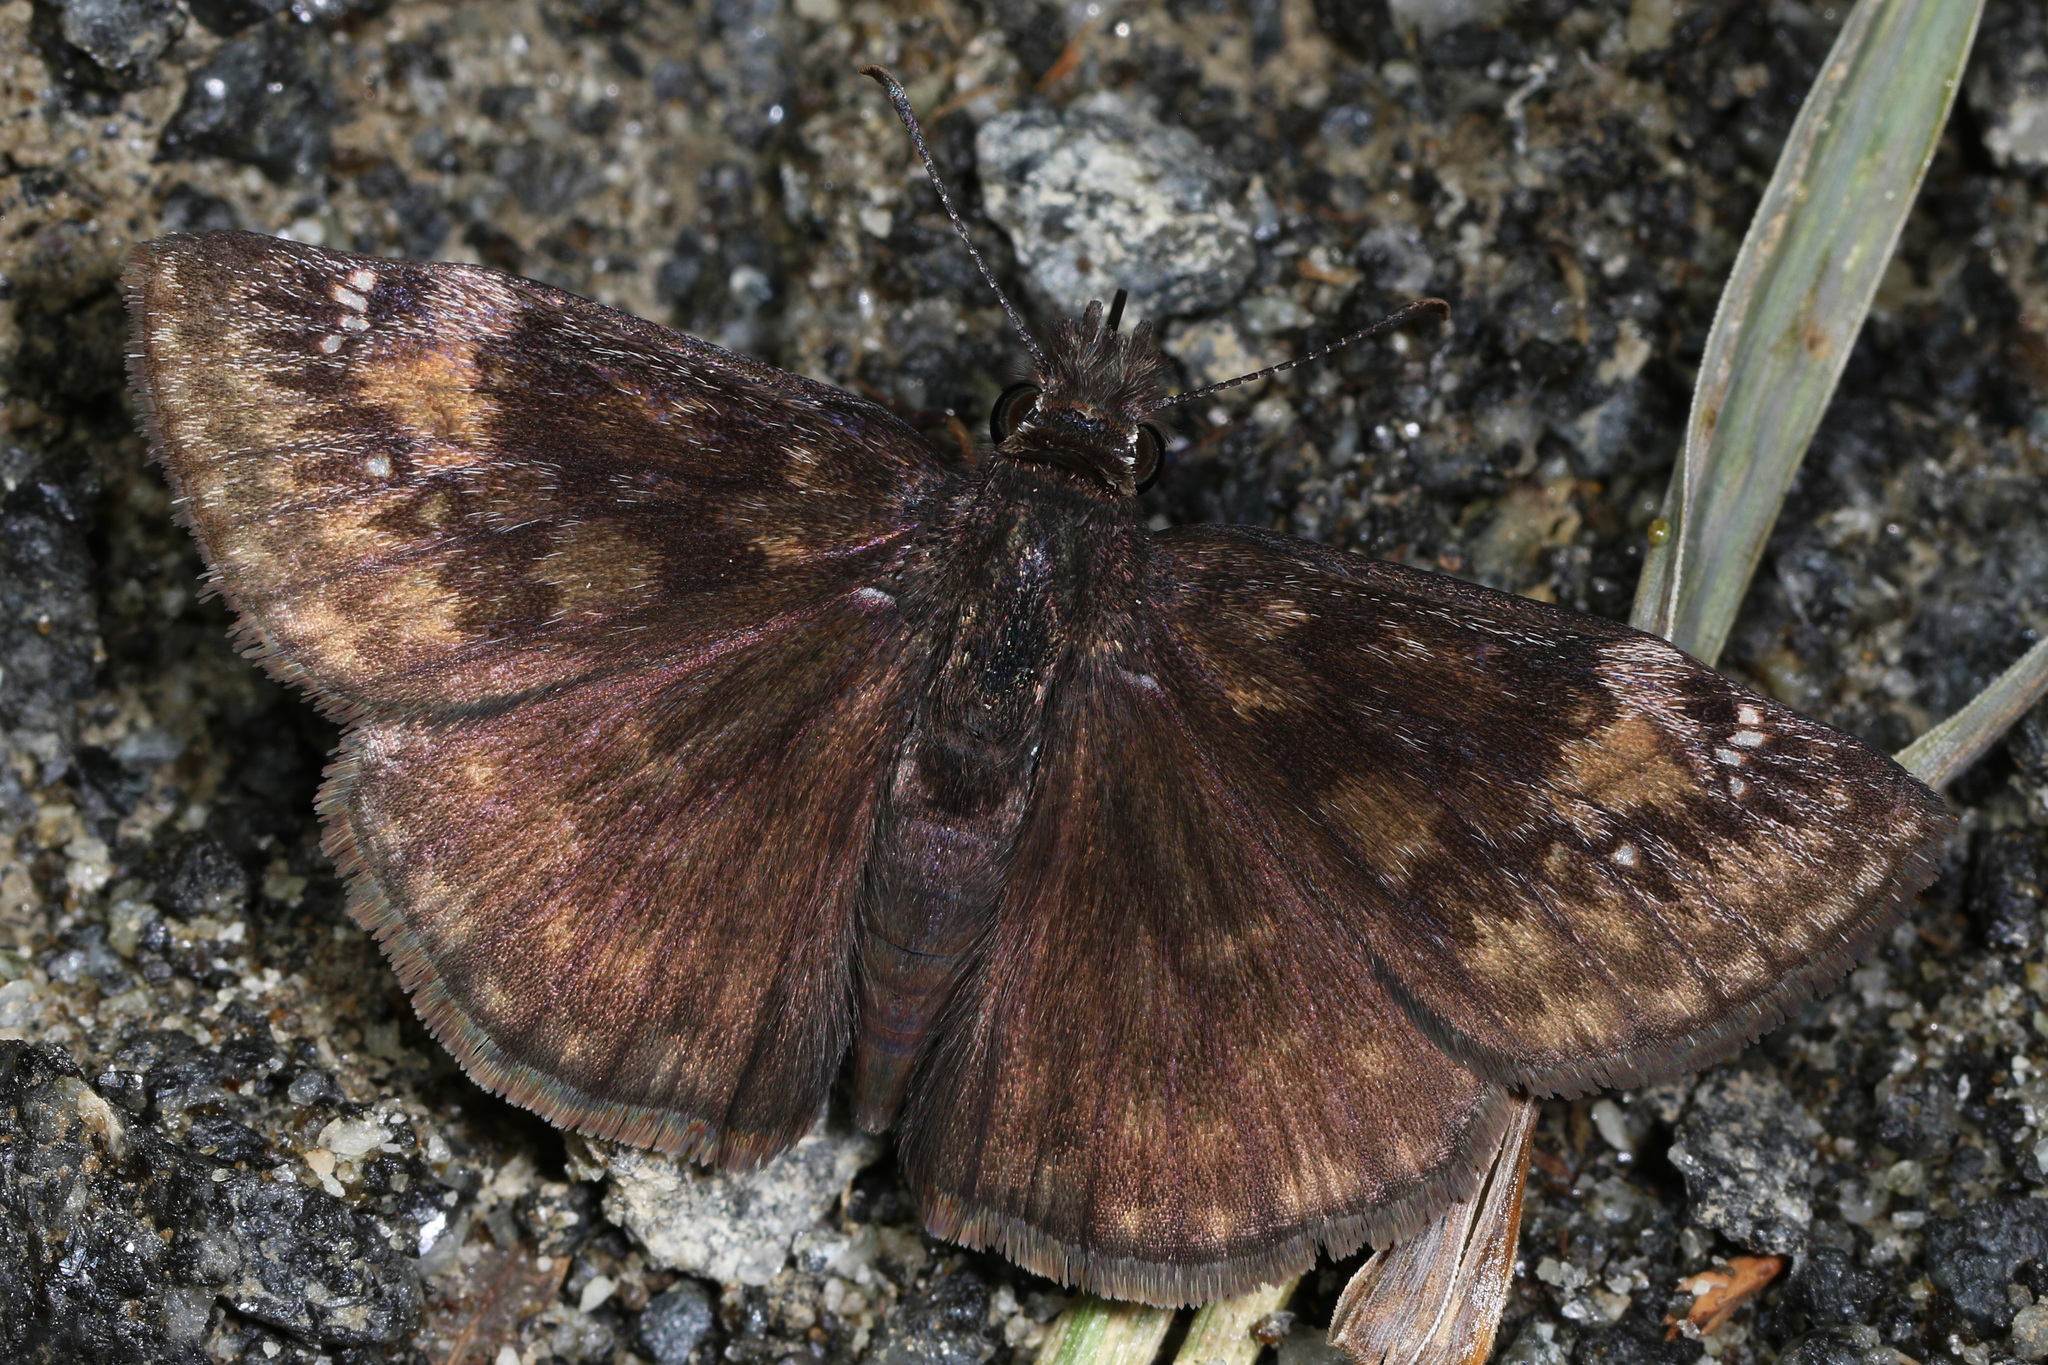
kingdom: Animalia
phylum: Arthropoda
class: Insecta
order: Lepidoptera
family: Hesperiidae
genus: Erynnis
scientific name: Erynnis baptisiae
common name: Wild indigo duskywing
